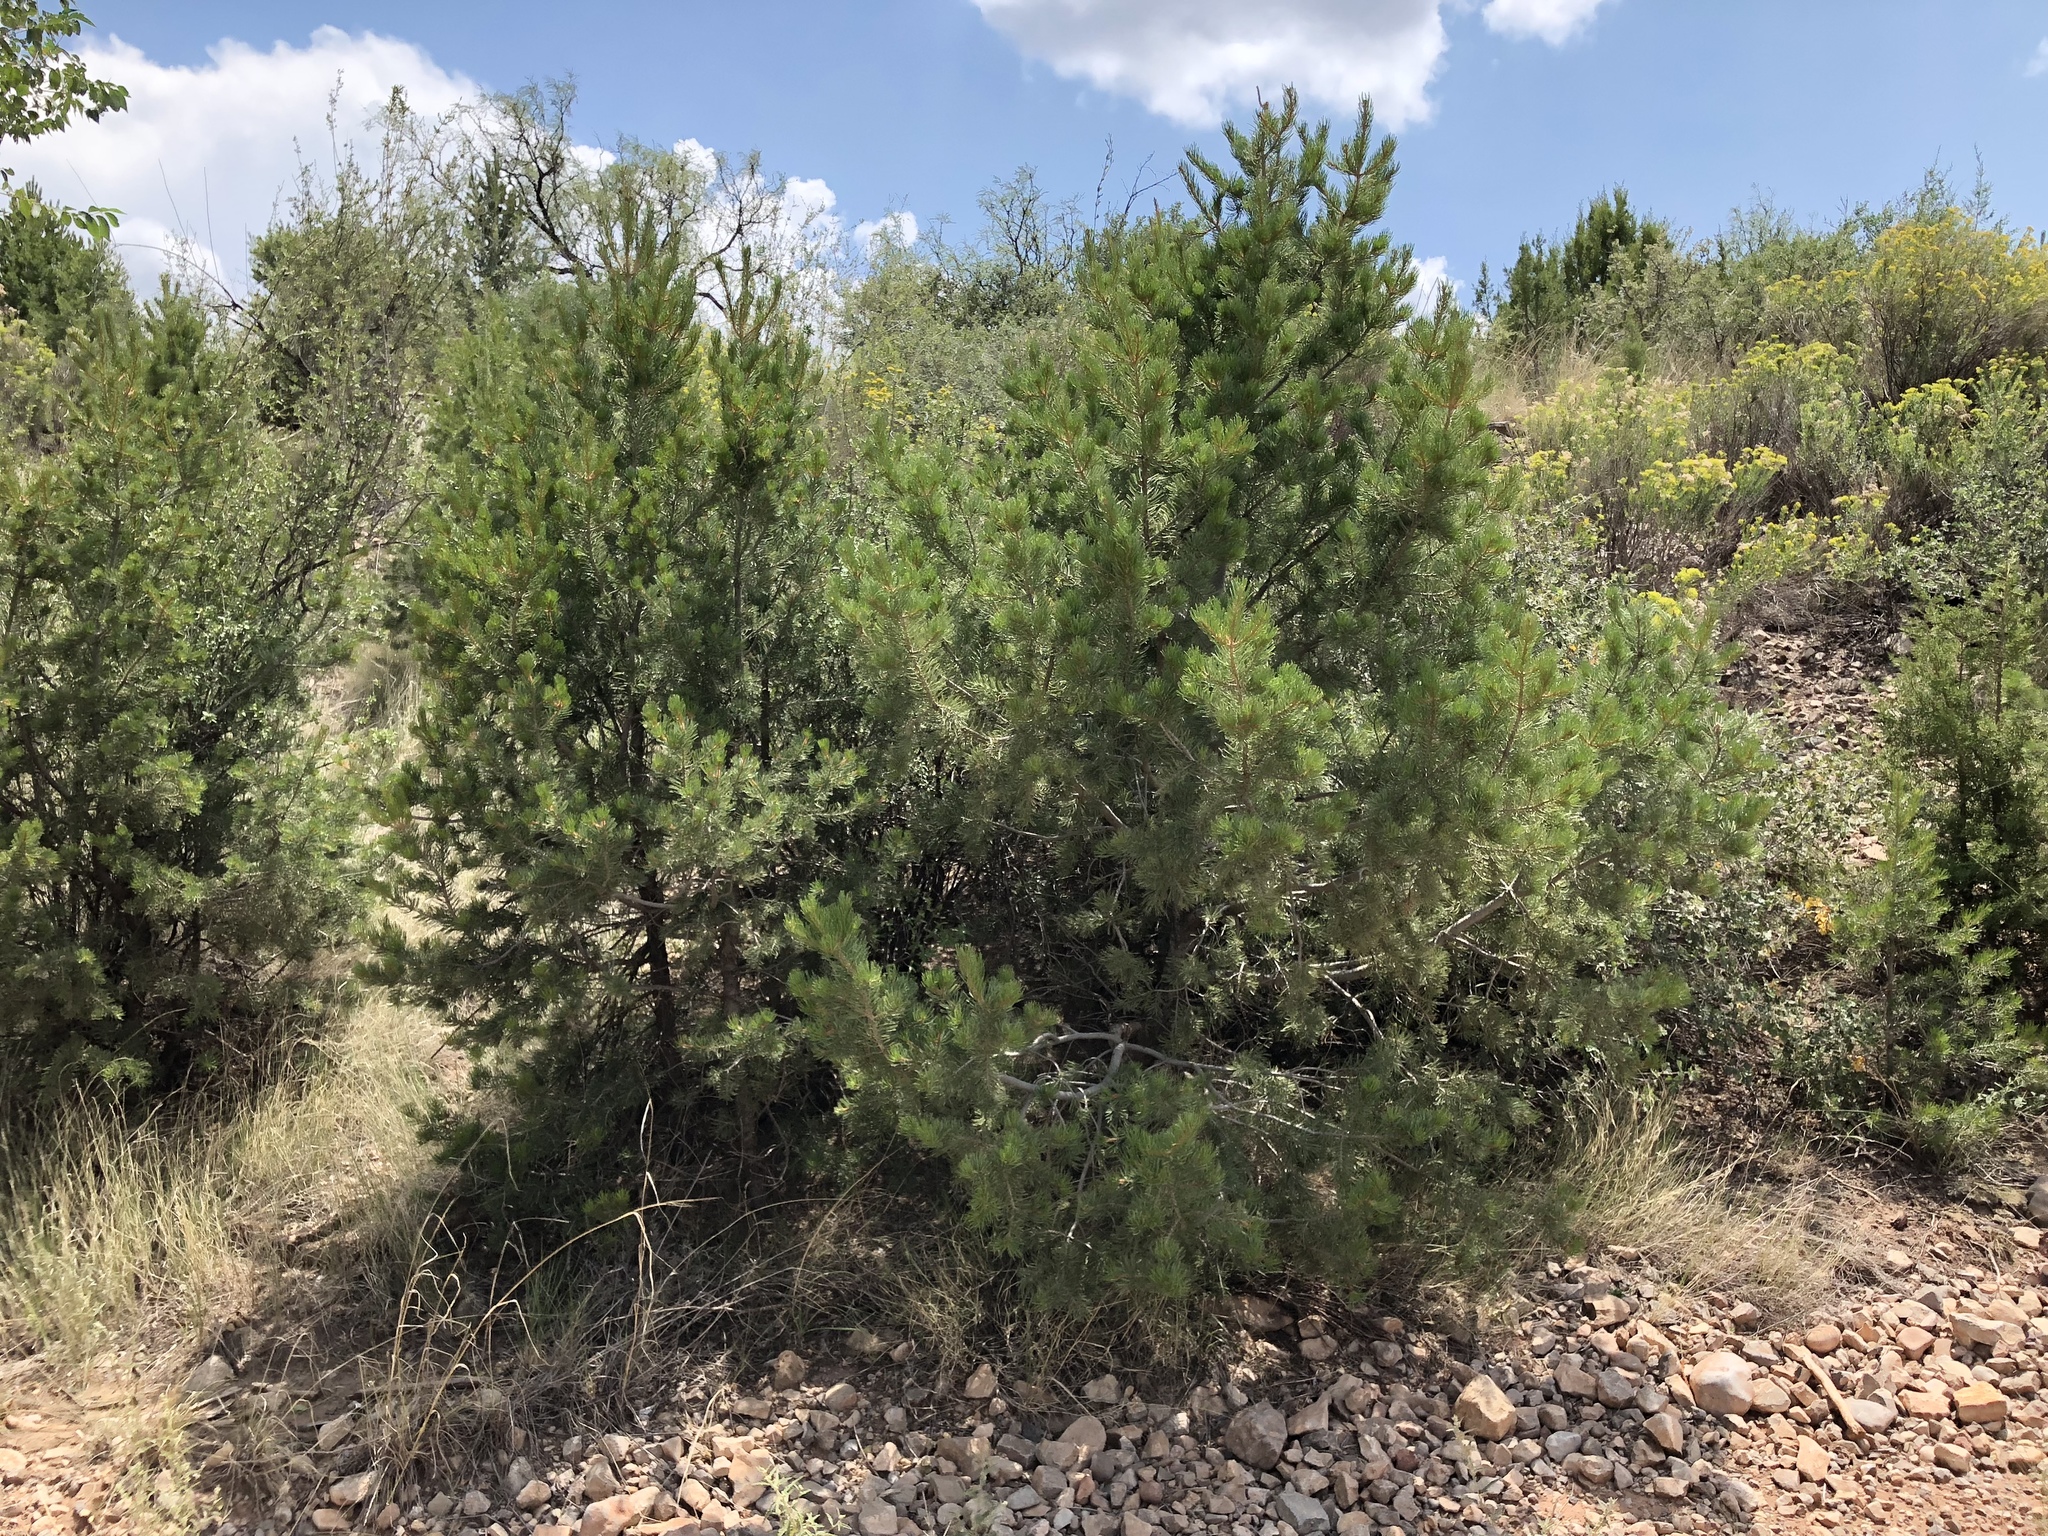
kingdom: Plantae
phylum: Tracheophyta
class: Pinopsida
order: Pinales
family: Pinaceae
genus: Pinus
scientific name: Pinus edulis
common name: Colorado pinyon
